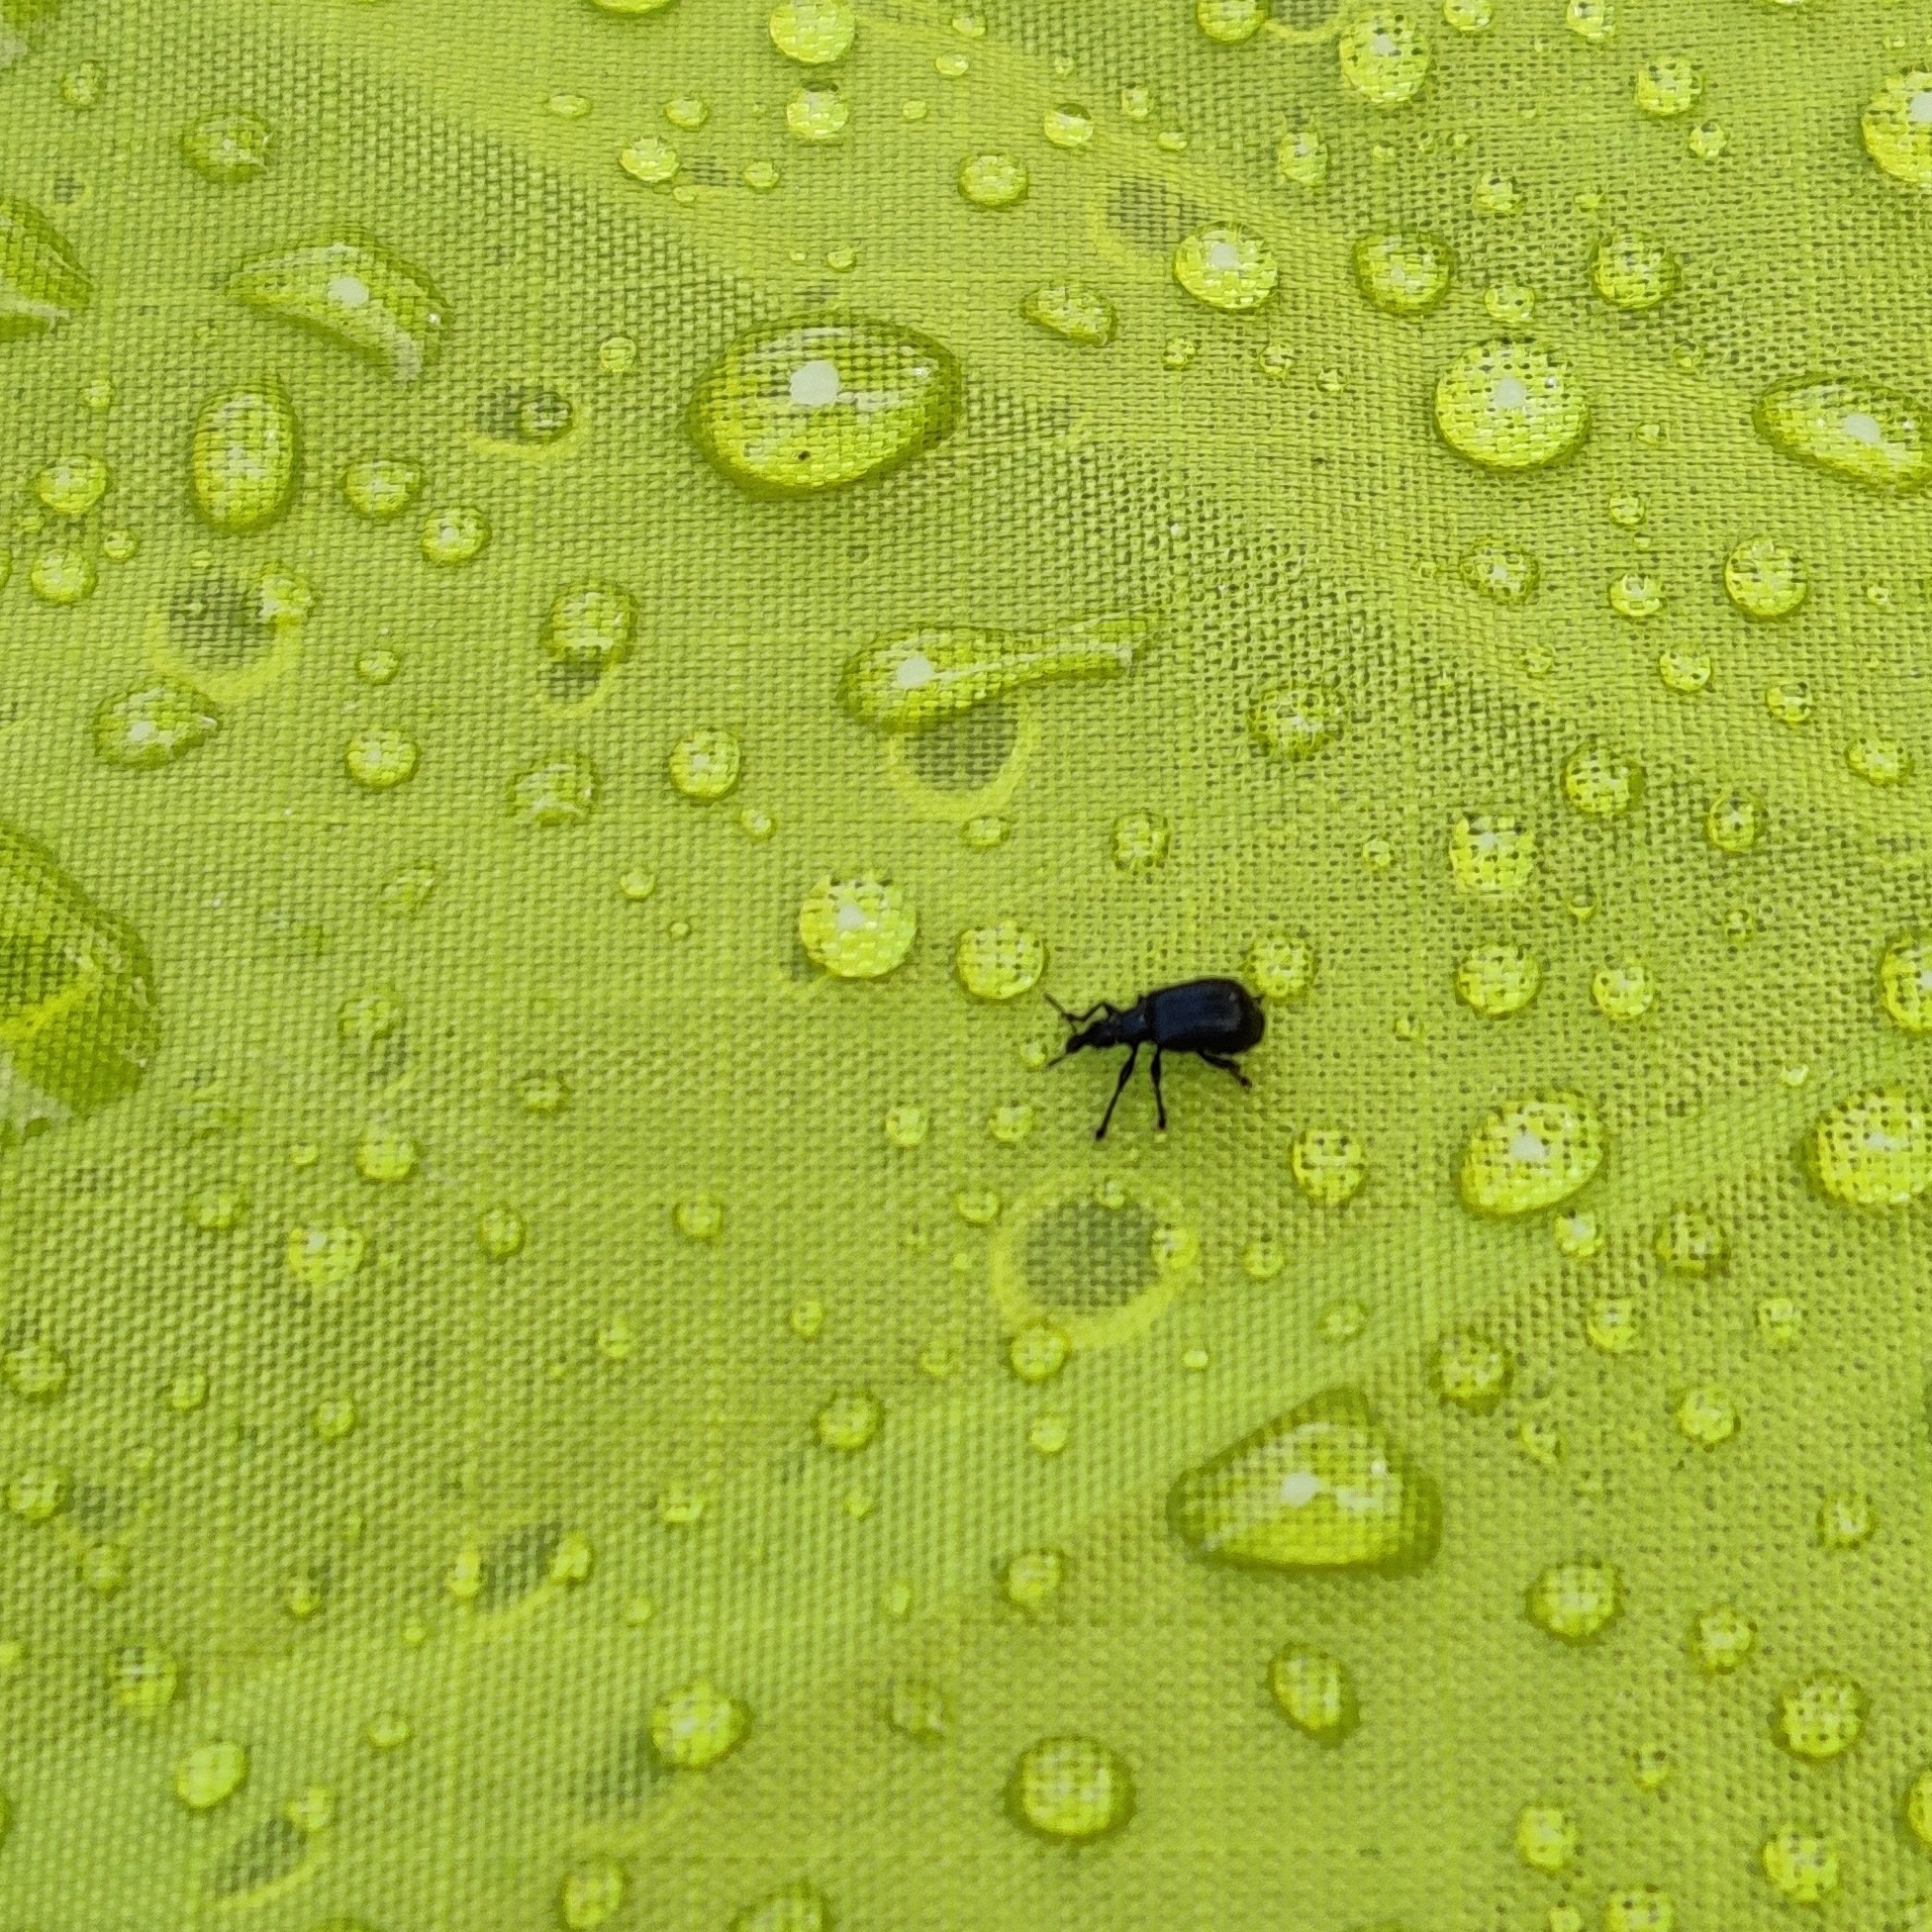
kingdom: Animalia
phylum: Arthropoda
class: Insecta
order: Coleoptera
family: Attelabidae
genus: Deporaus
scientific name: Deporaus betulae
